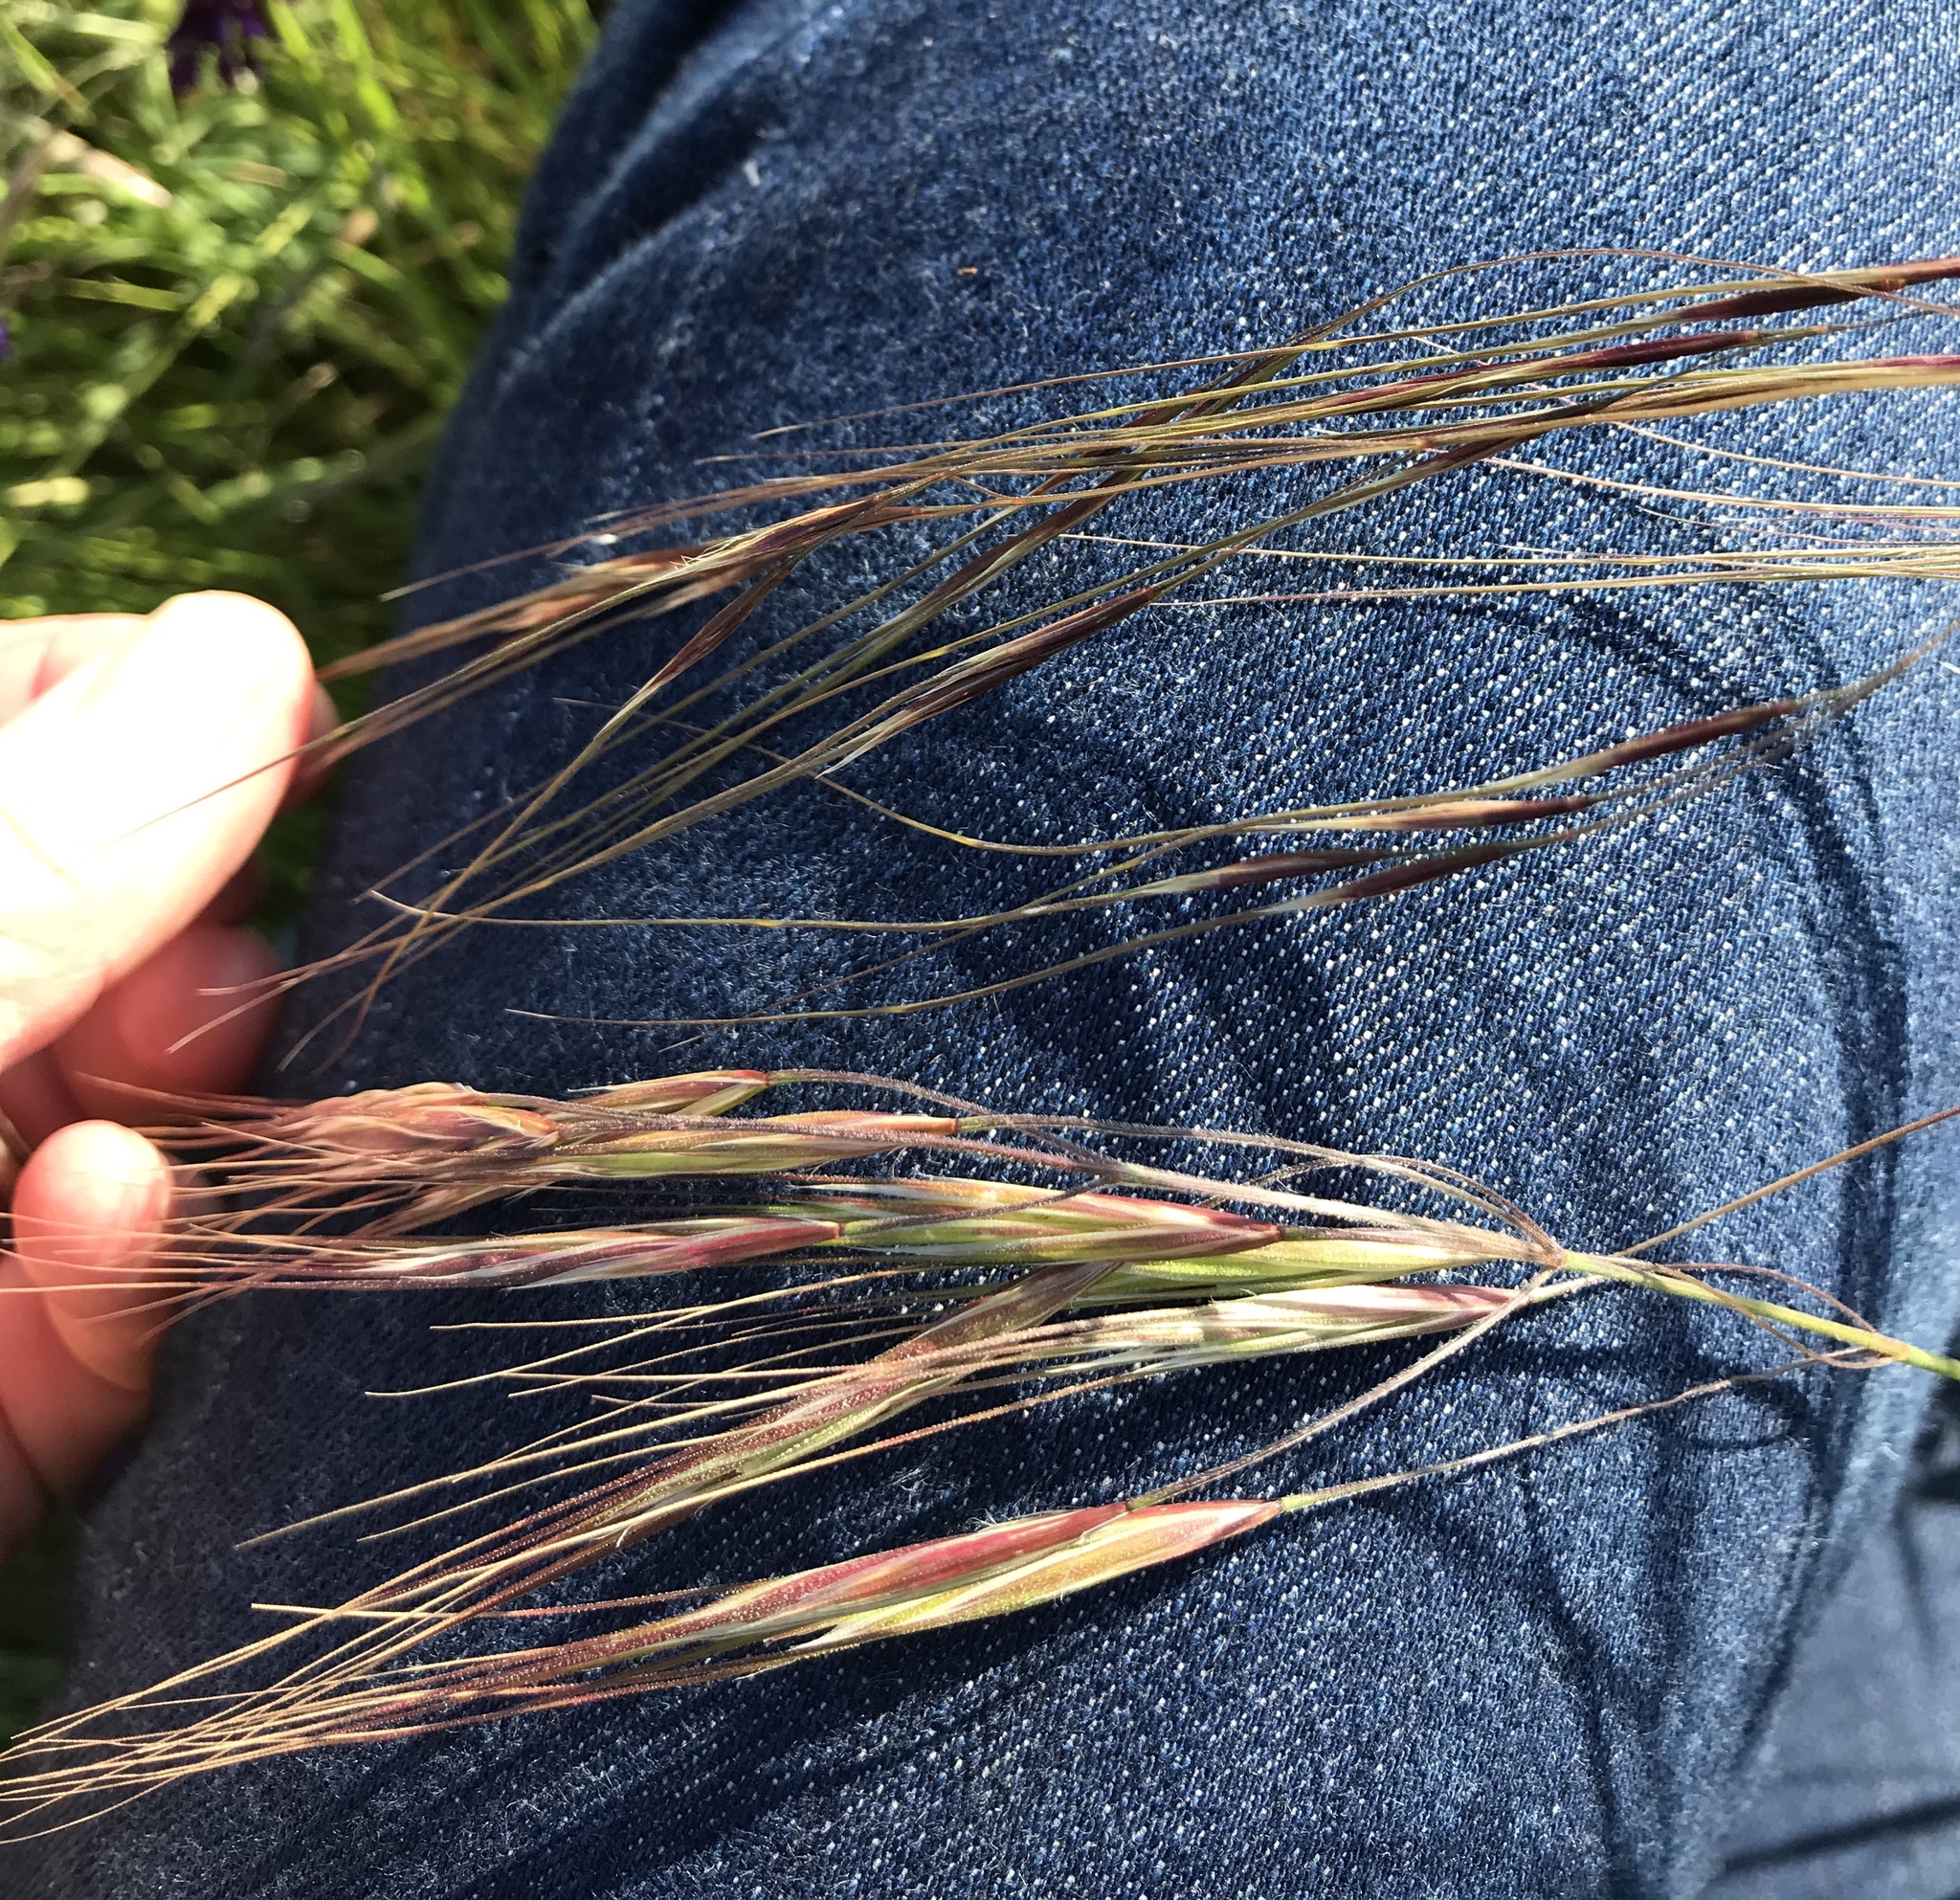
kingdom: Plantae
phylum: Tracheophyta
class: Liliopsida
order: Poales
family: Poaceae
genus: Nassella
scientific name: Nassella pulchra
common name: Purple needlegrass
